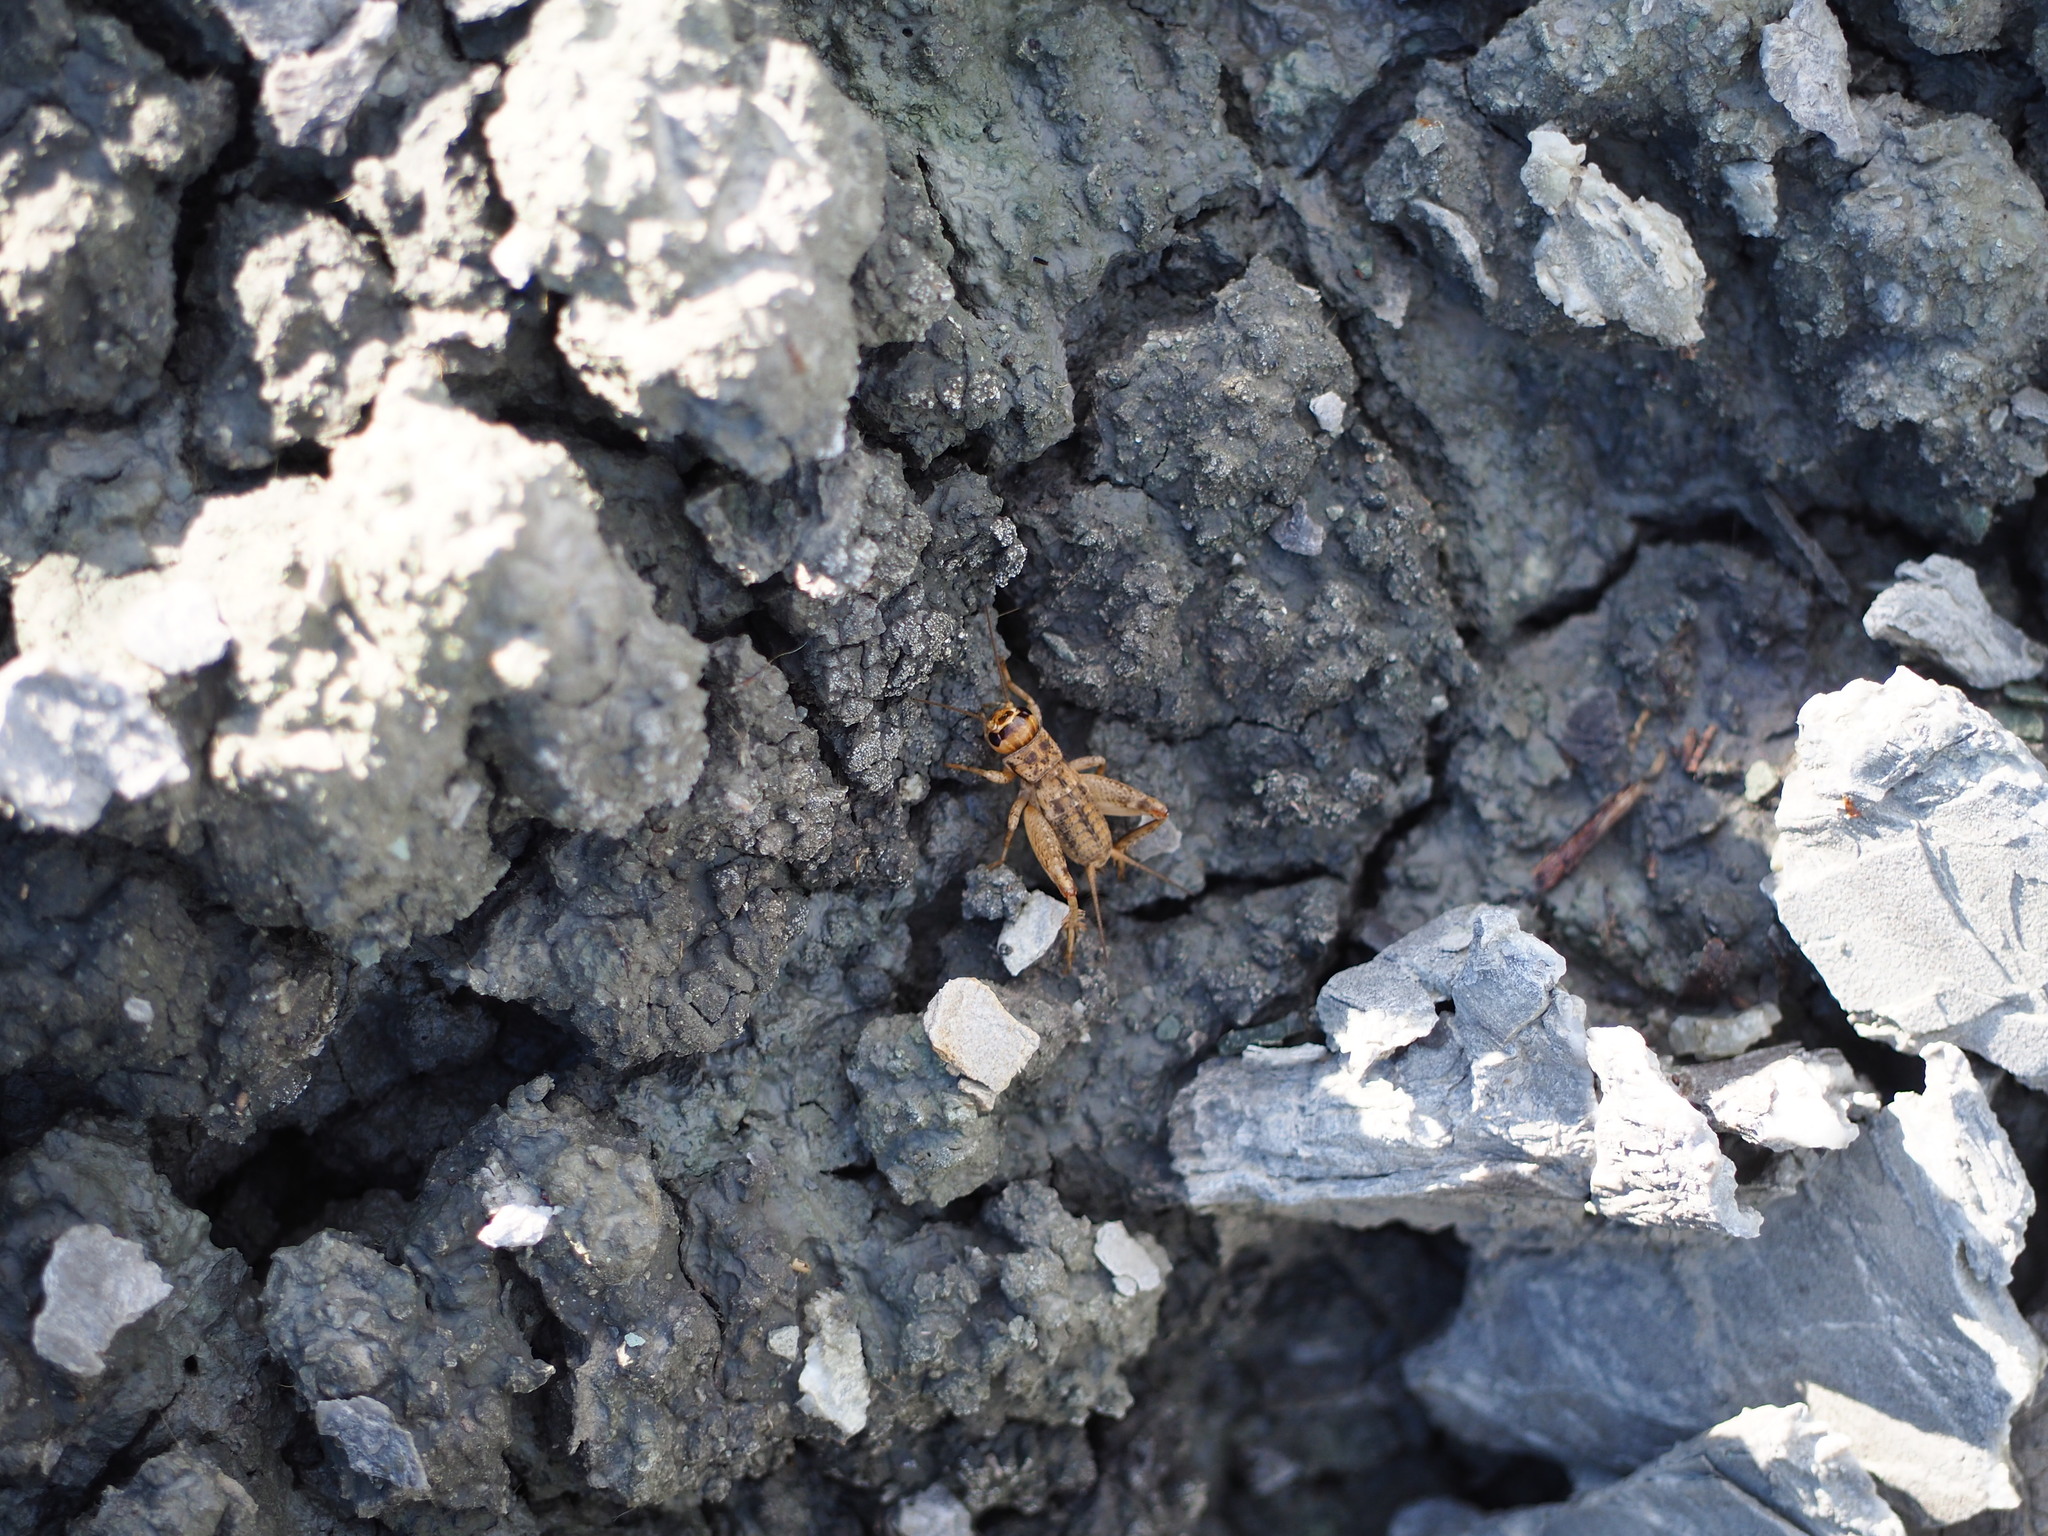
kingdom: Animalia
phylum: Arthropoda
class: Insecta
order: Orthoptera
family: Gryllidae
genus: Eumodicogryllus
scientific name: Eumodicogryllus bordigalensis
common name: Bordeaux cricket
